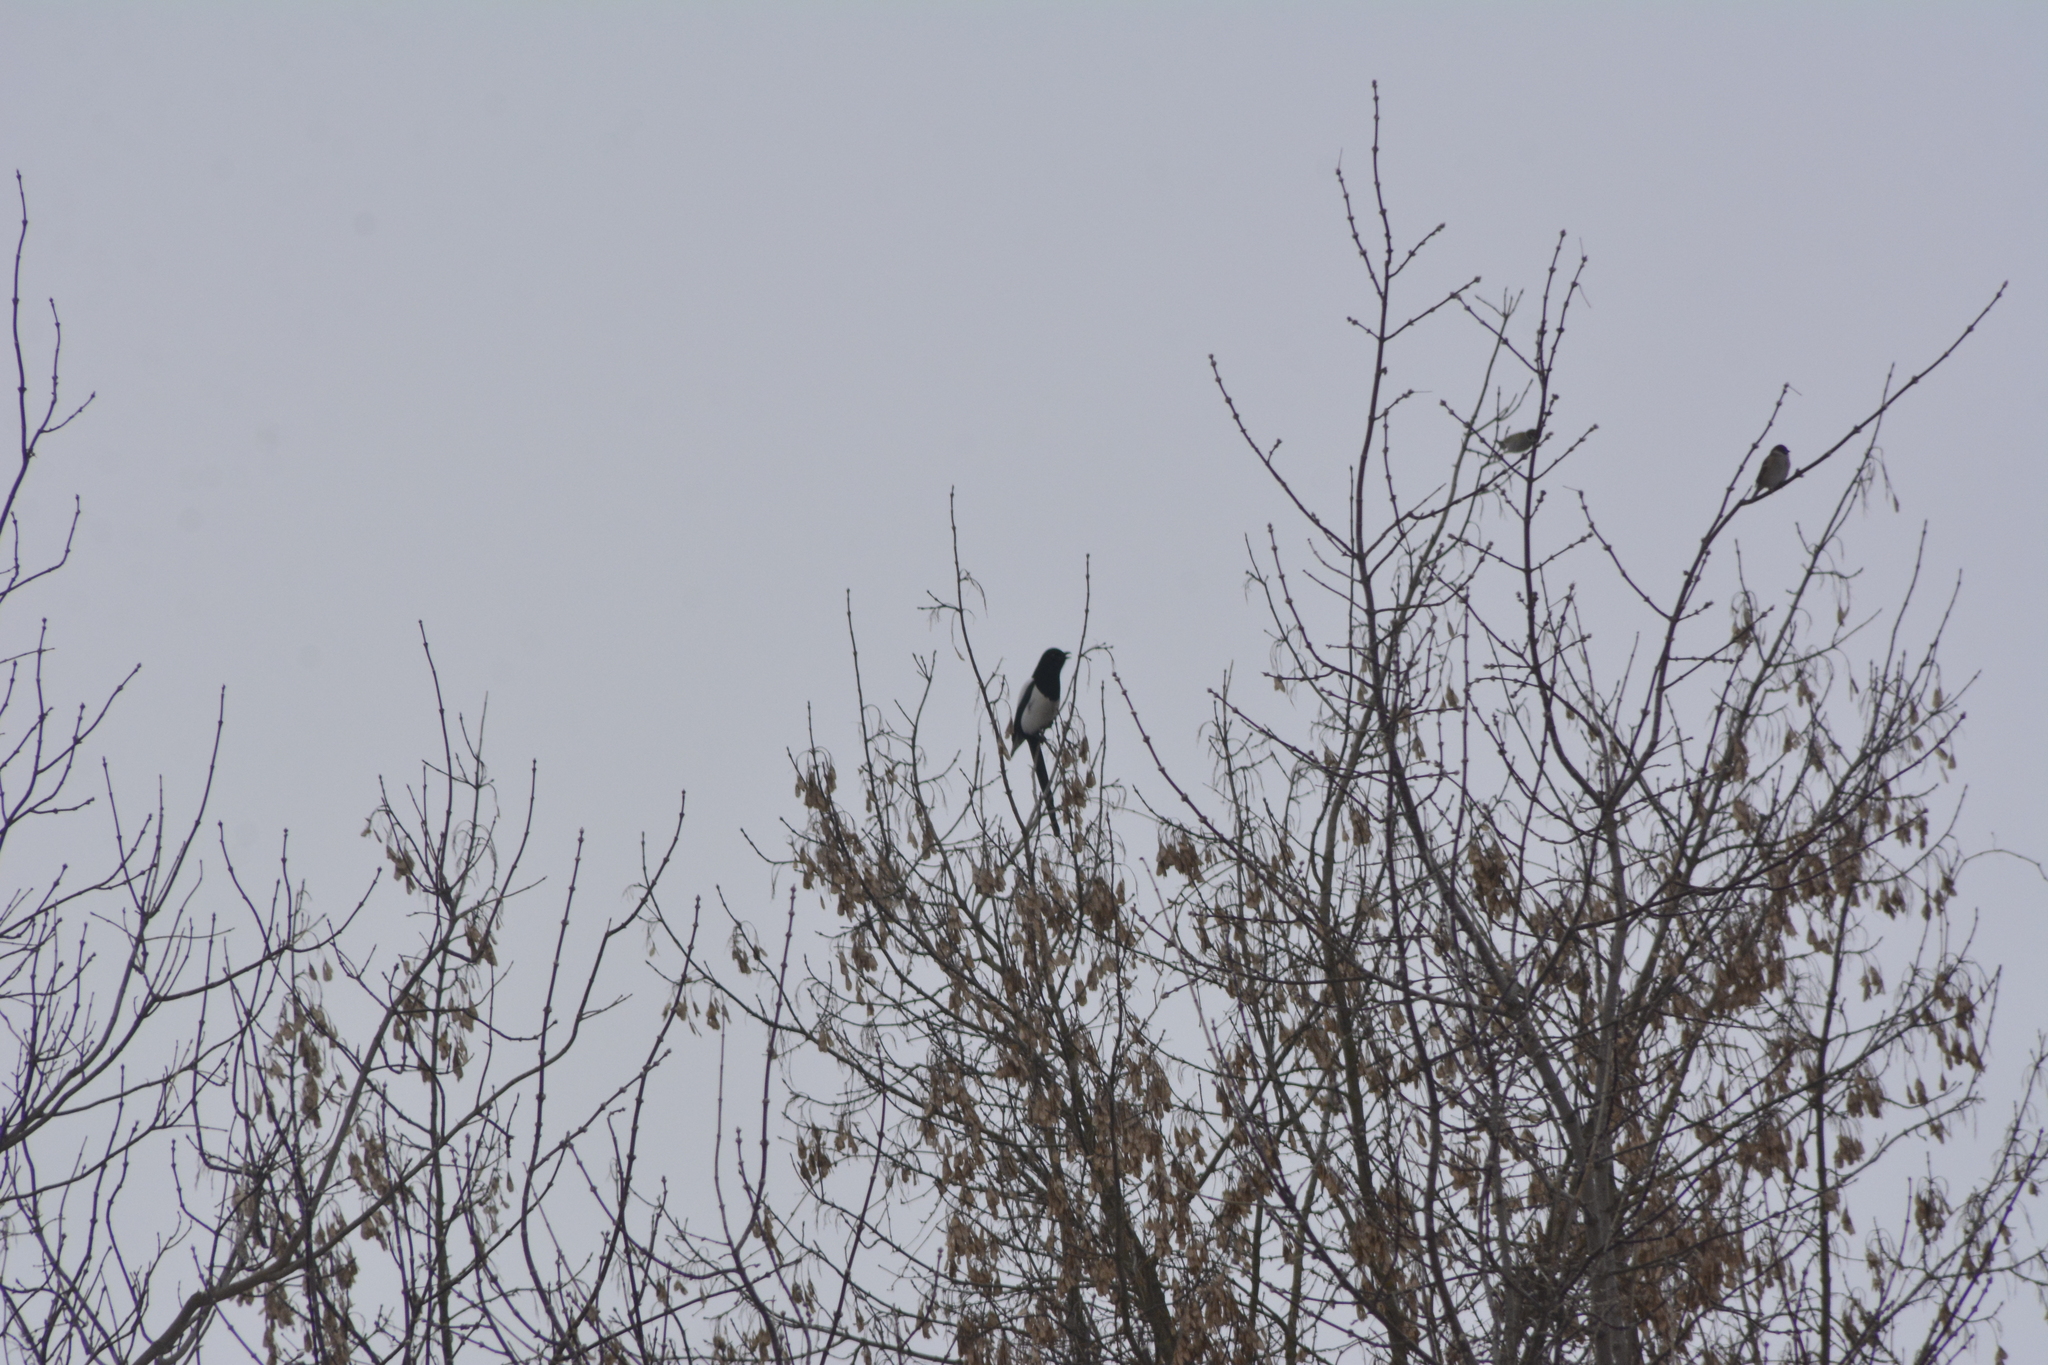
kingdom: Animalia
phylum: Chordata
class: Aves
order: Passeriformes
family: Corvidae
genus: Pica
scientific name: Pica pica
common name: Eurasian magpie
